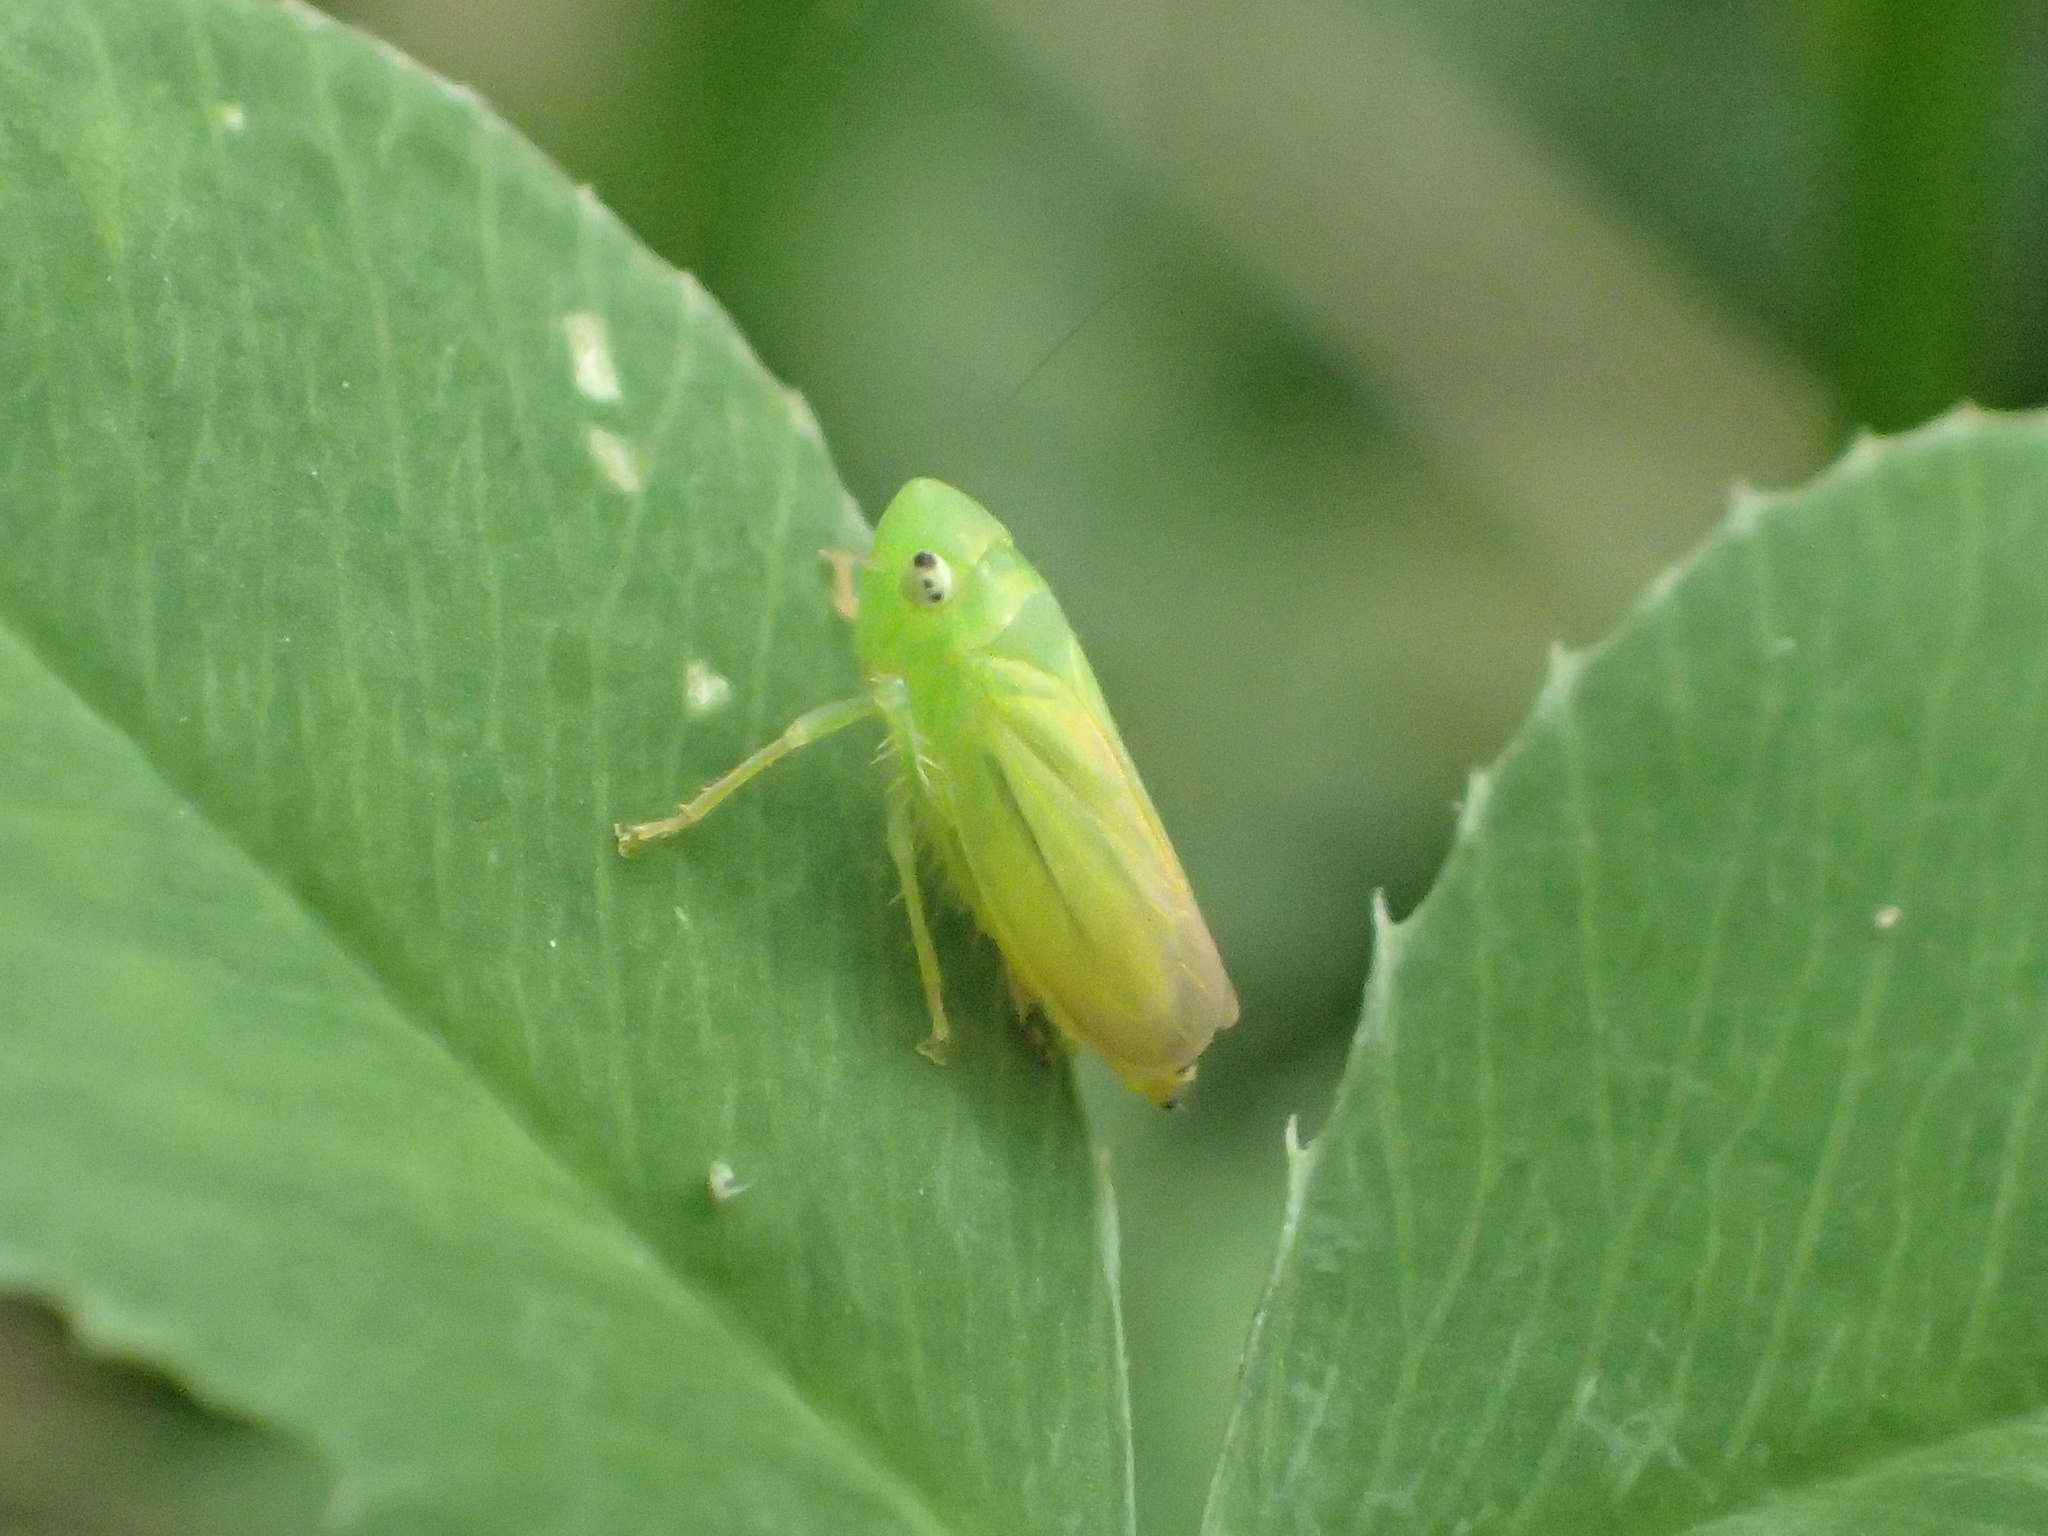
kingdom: Animalia
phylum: Arthropoda
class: Insecta
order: Hemiptera
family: Cicadellidae
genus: Neocoelidia
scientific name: Neocoelidia tumidifrons
